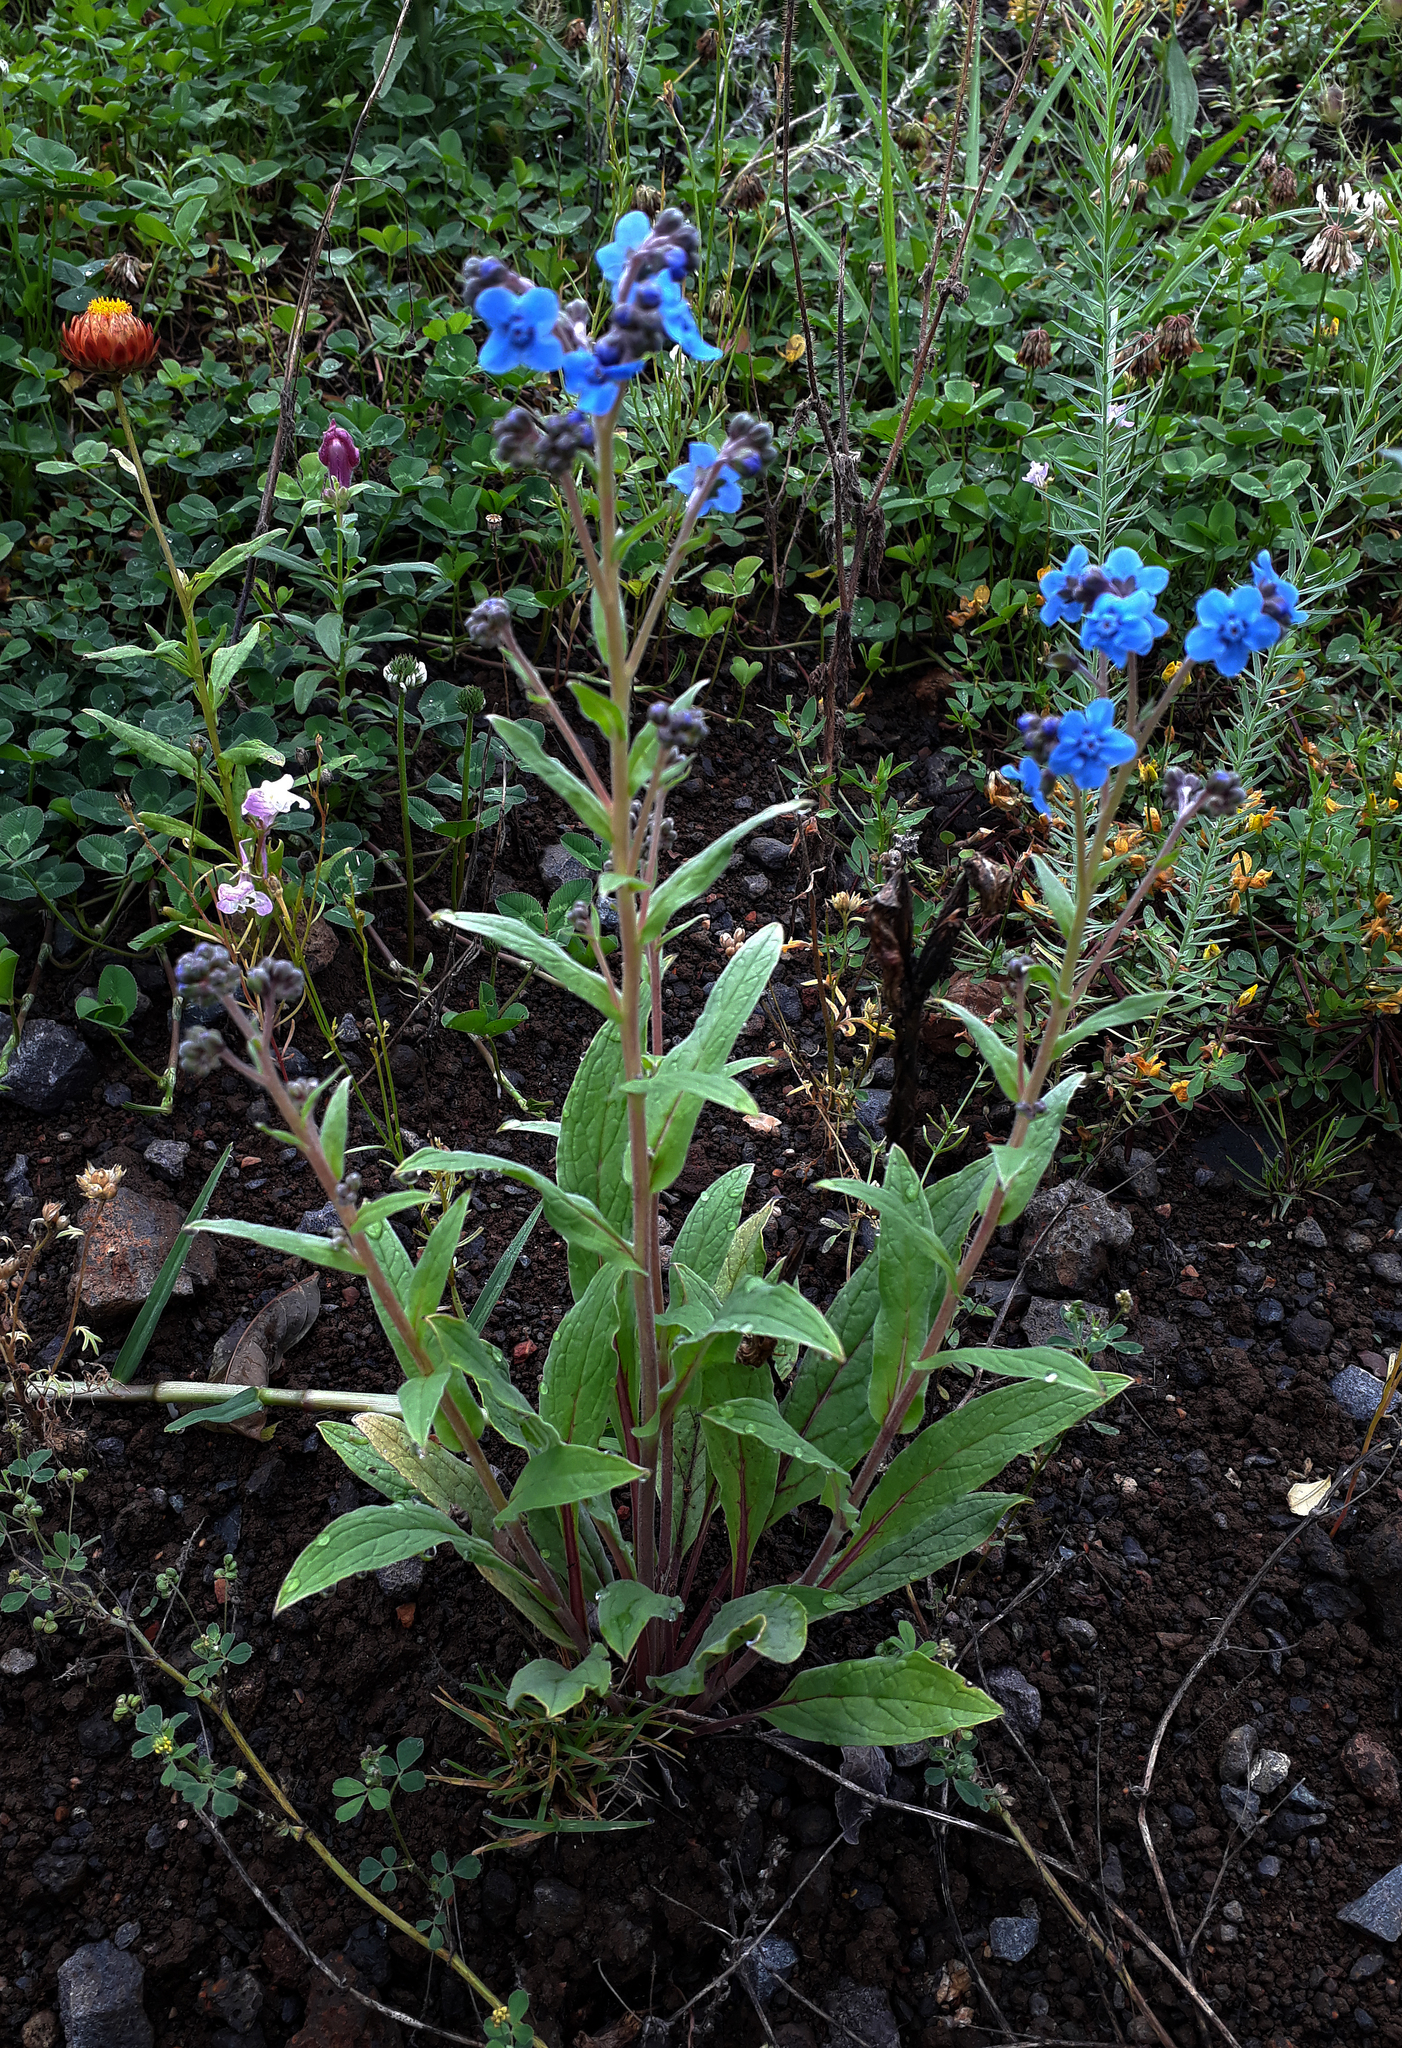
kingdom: Plantae
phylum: Tracheophyta
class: Magnoliopsida
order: Boraginales
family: Boraginaceae
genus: Cynoglossum
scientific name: Cynoglossum amabile
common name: Chinese hound's tongue
